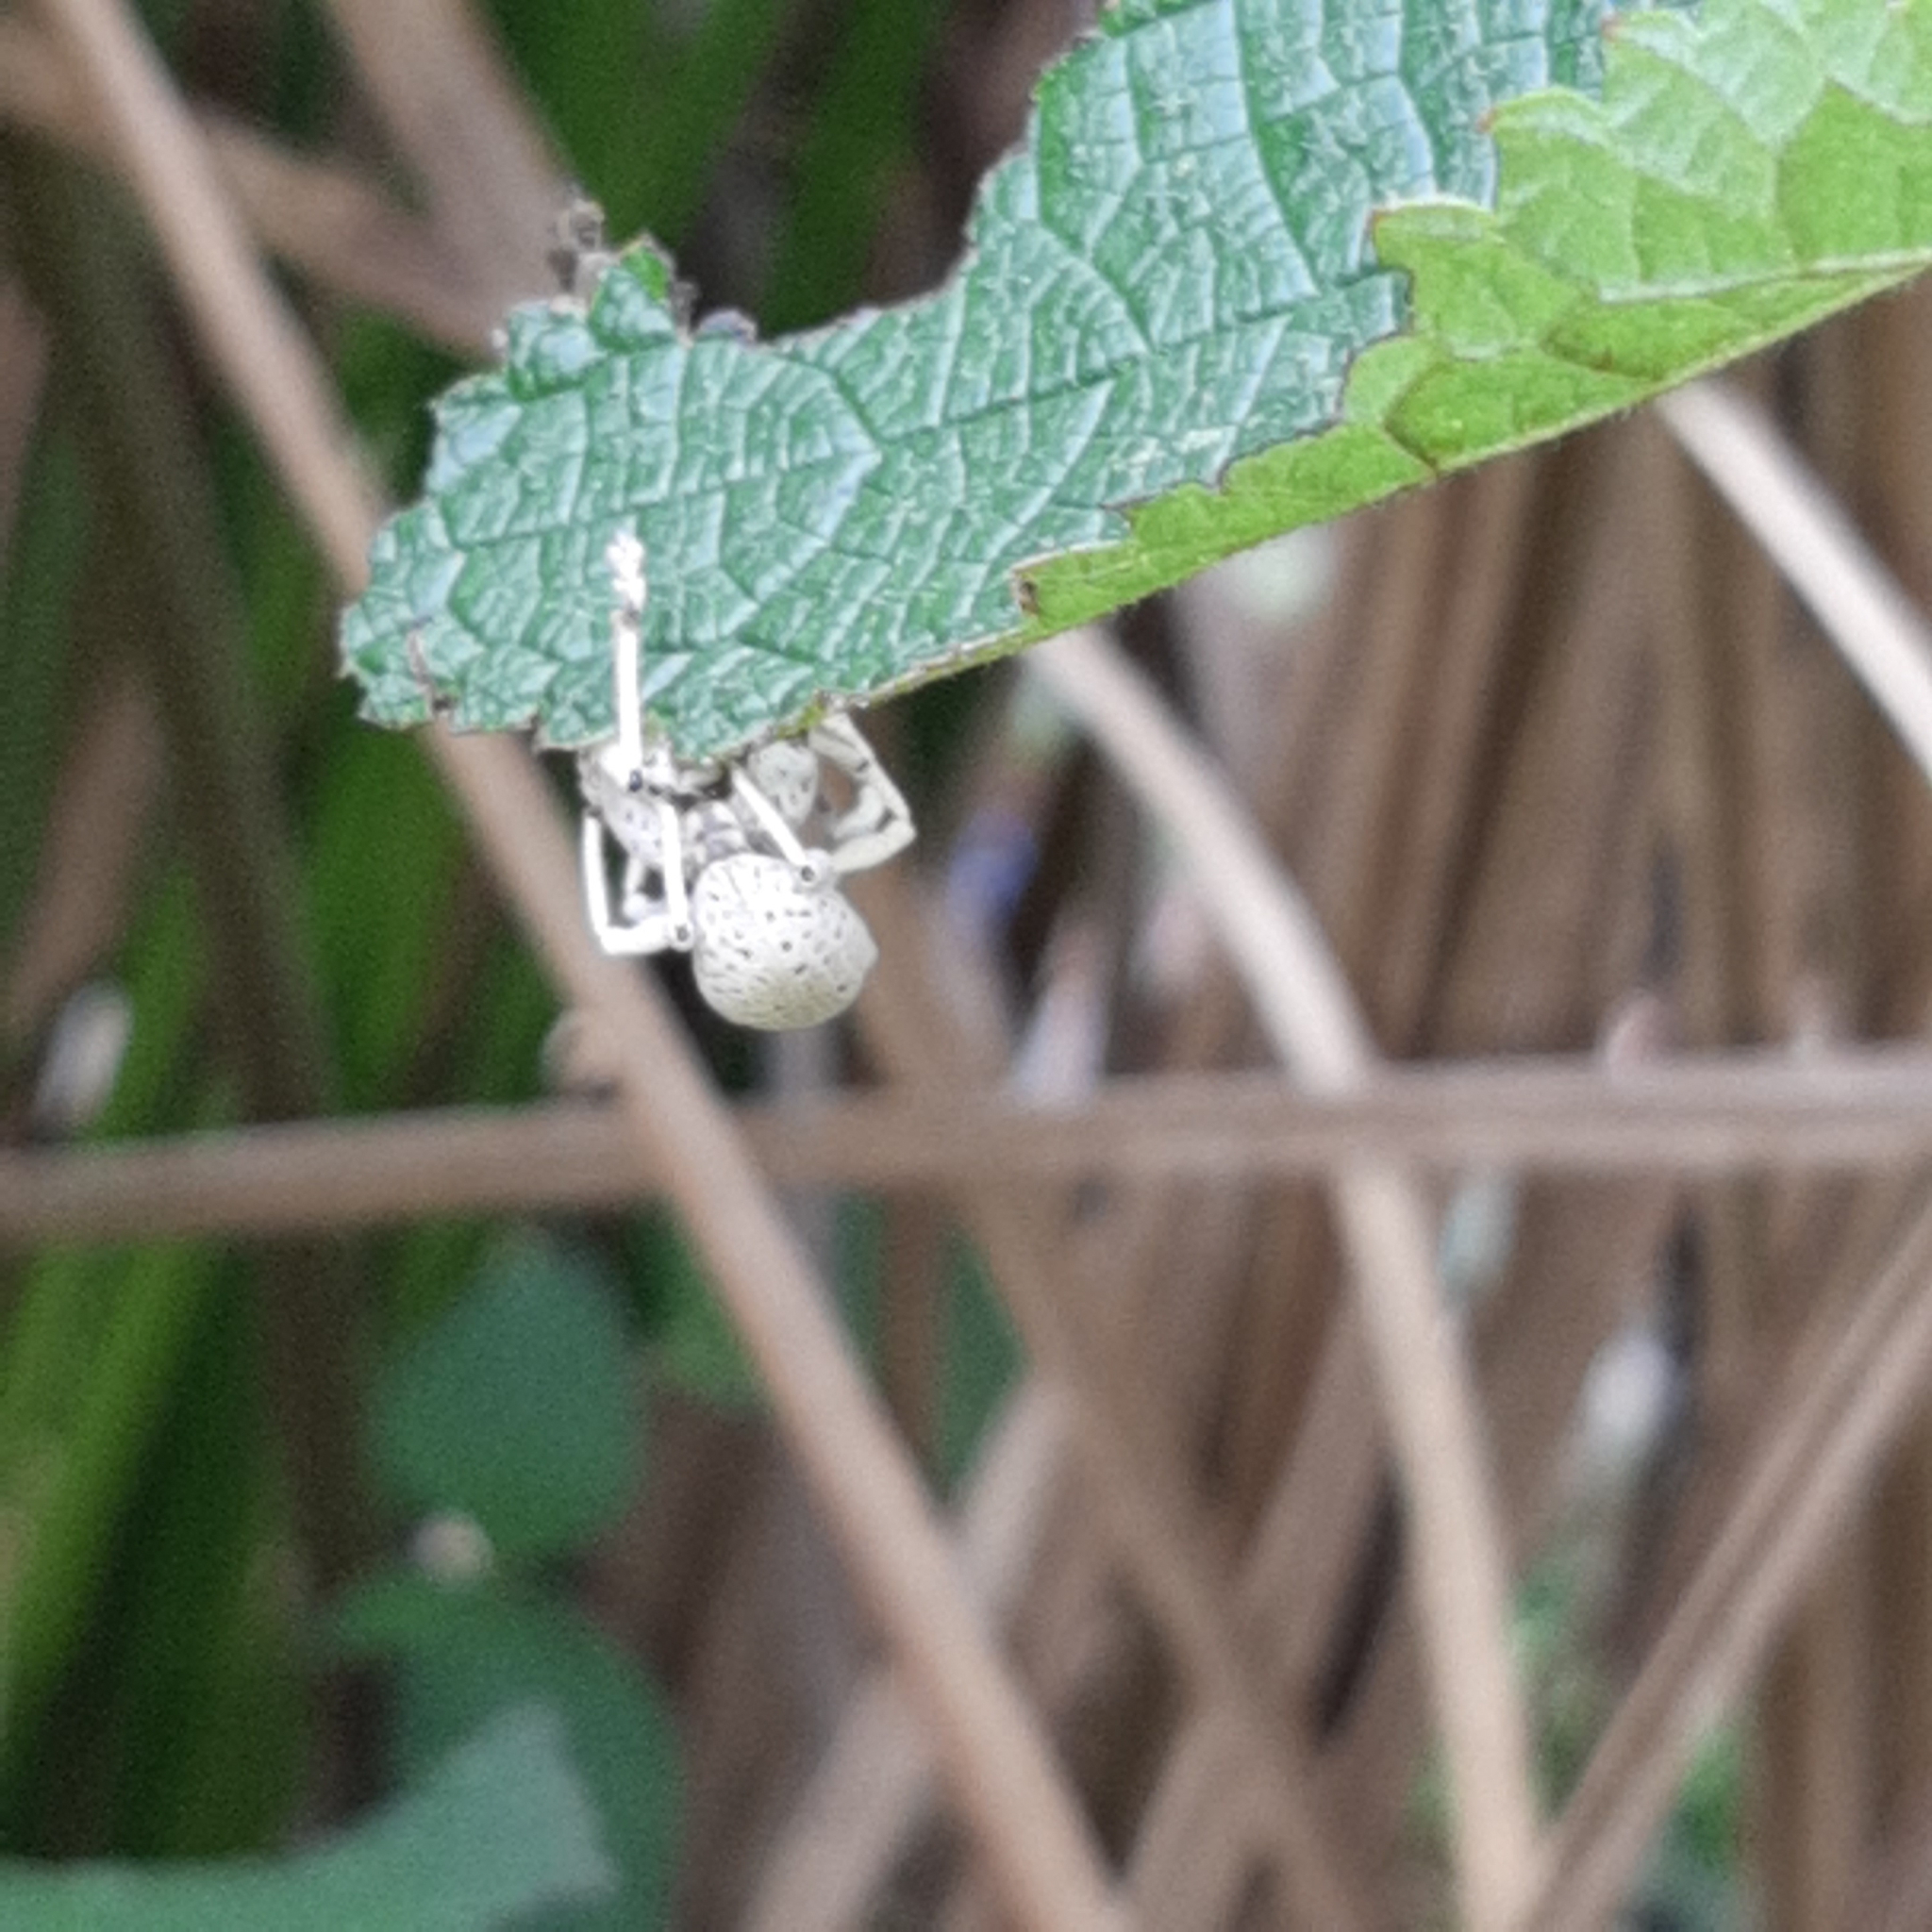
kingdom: Animalia
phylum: Arthropoda
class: Insecta
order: Coleoptera
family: Curculionidae
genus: Exophthalmus
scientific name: Exophthalmus scalptus
